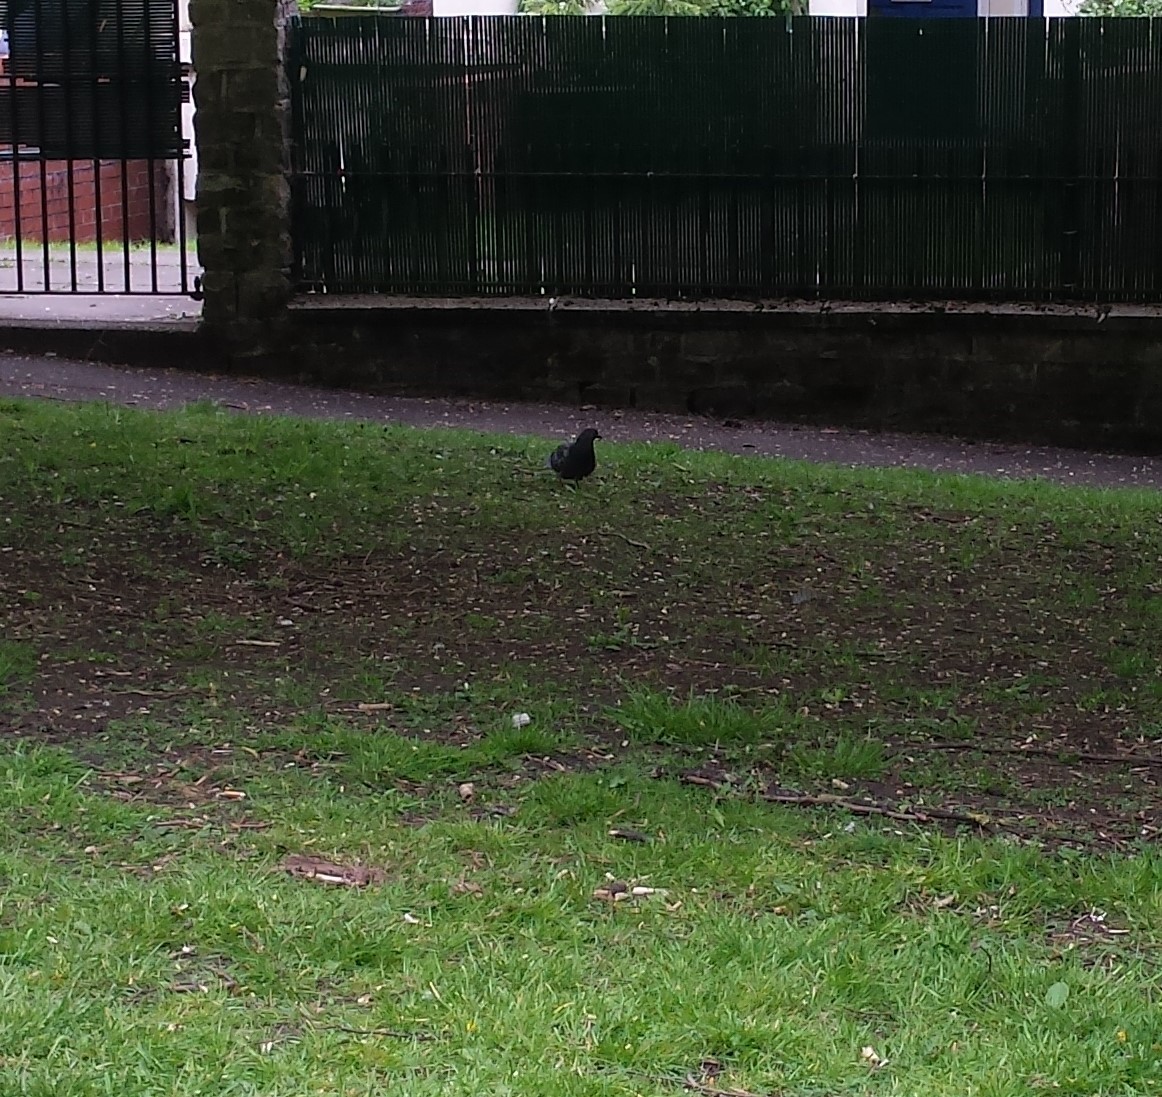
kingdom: Animalia
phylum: Chordata
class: Aves
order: Columbiformes
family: Columbidae
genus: Columba
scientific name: Columba livia
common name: Rock pigeon
